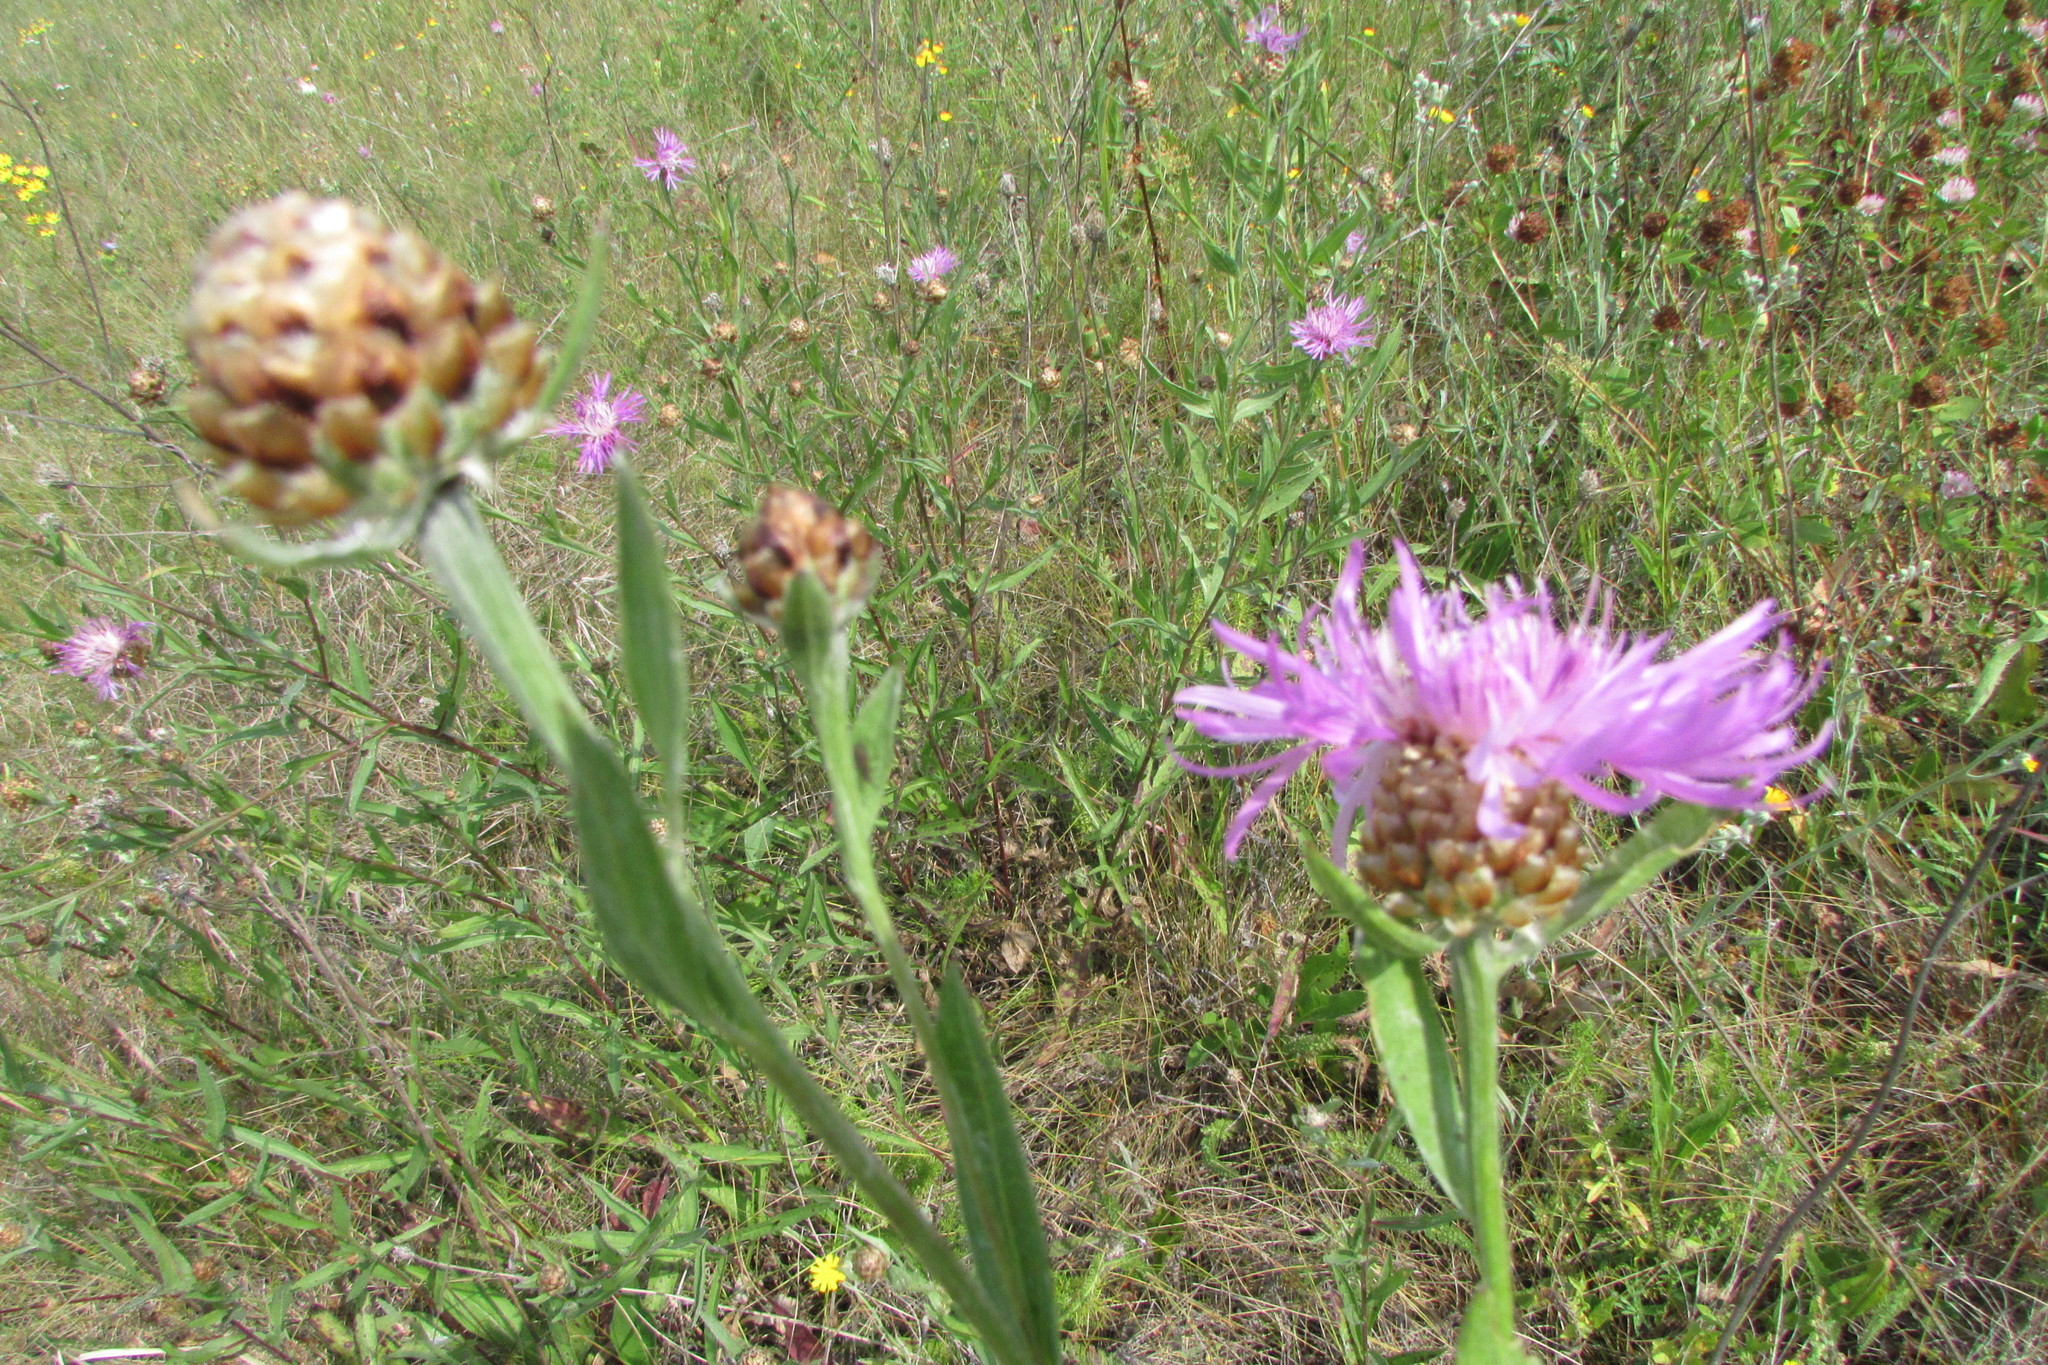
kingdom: Plantae
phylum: Tracheophyta
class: Magnoliopsida
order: Asterales
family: Asteraceae
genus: Centaurea
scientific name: Centaurea jacea
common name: Brown knapweed
